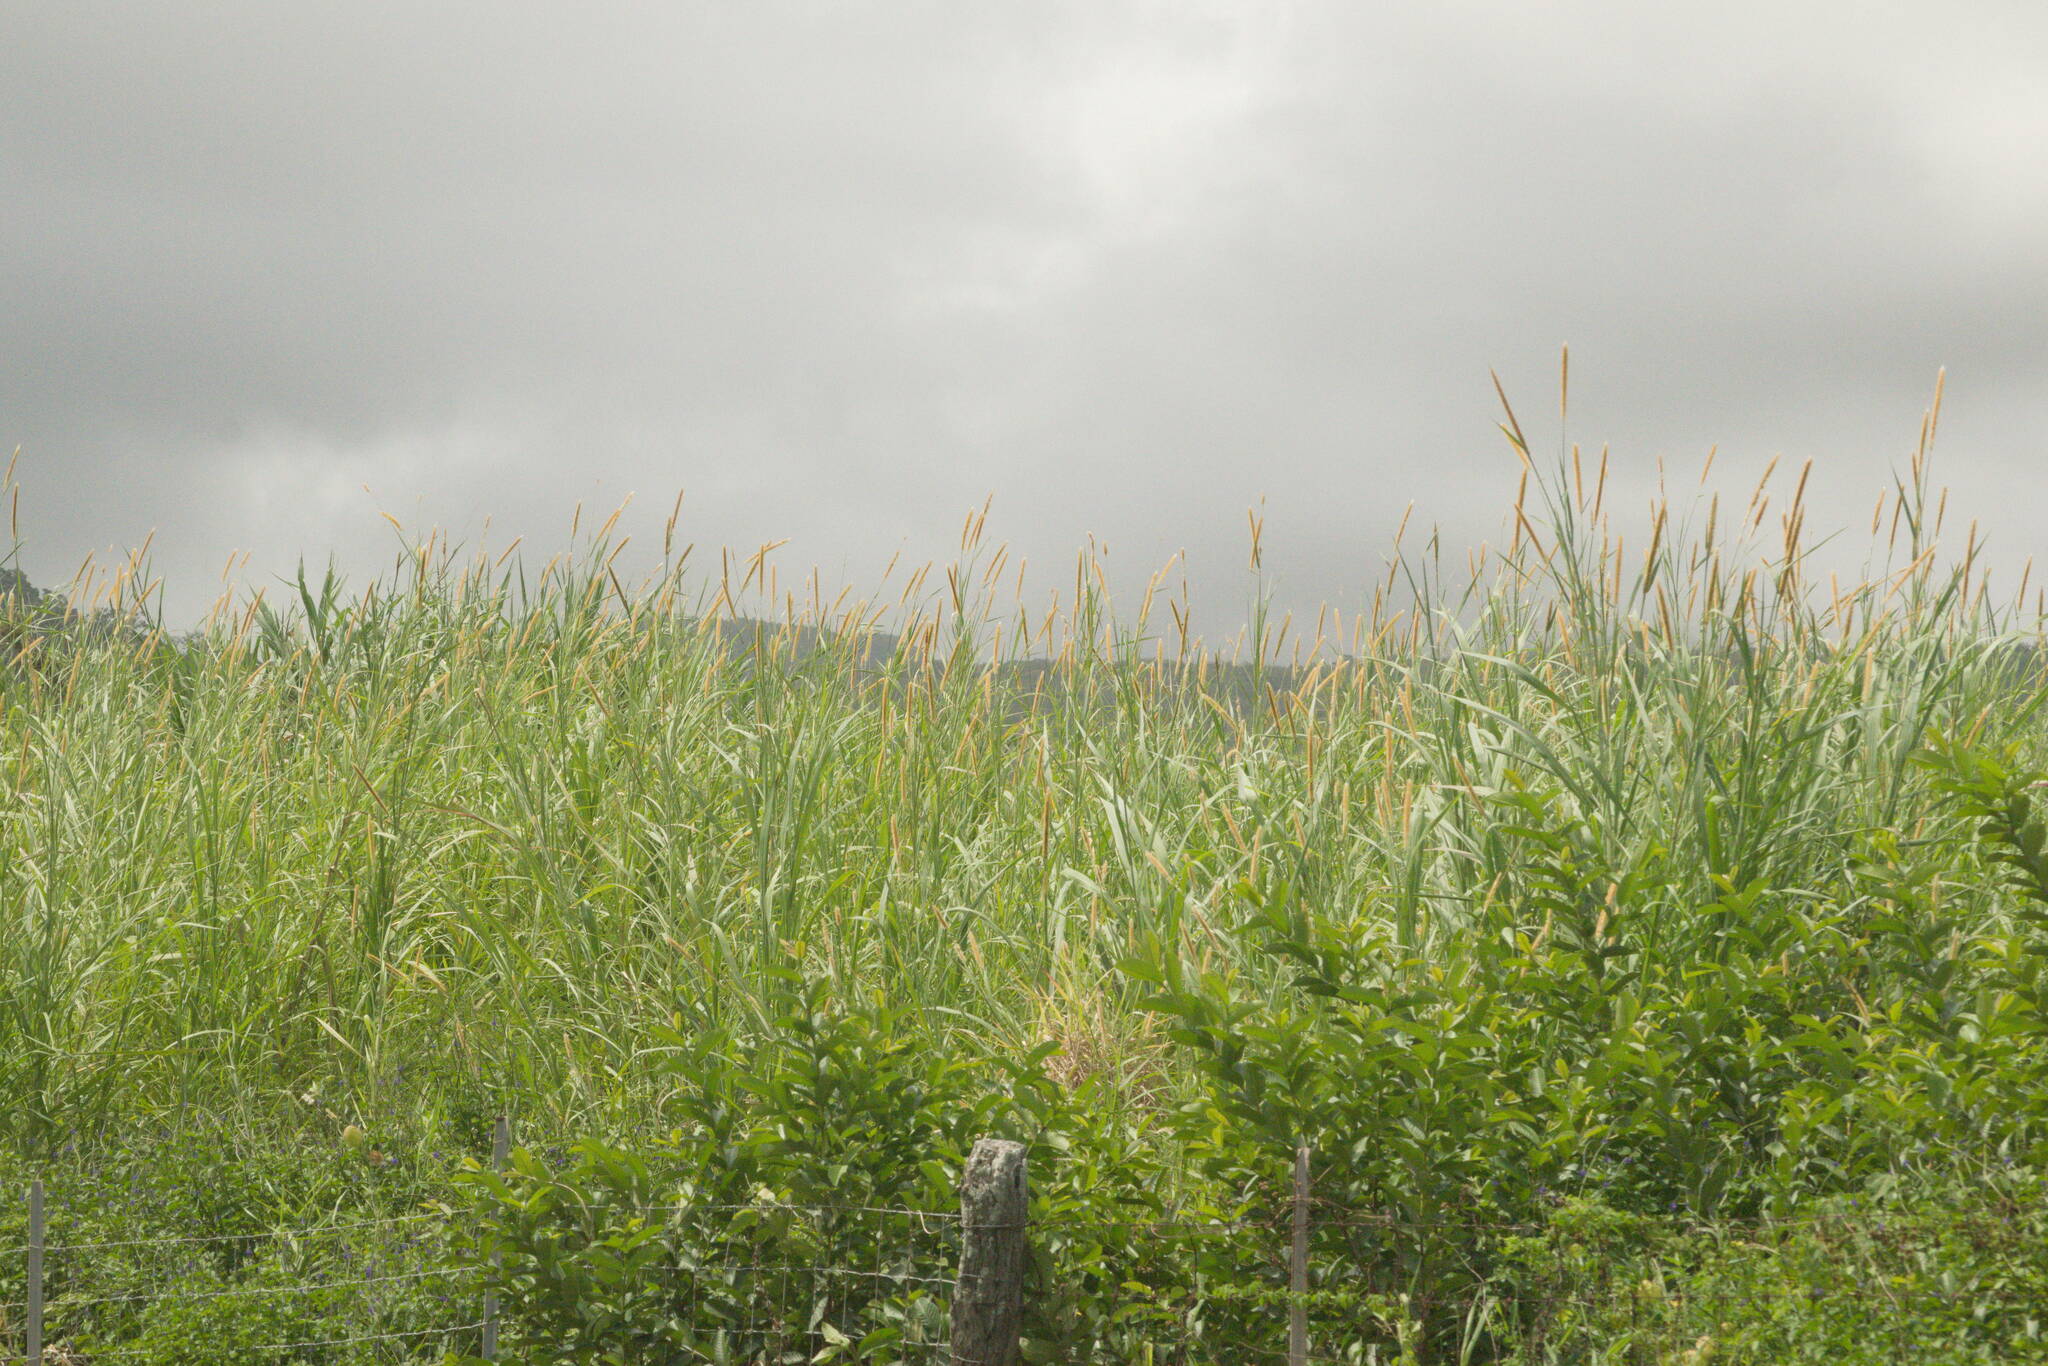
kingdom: Plantae
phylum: Tracheophyta
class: Liliopsida
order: Poales
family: Poaceae
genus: Cenchrus
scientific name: Cenchrus purpureus
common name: Elephant grass
